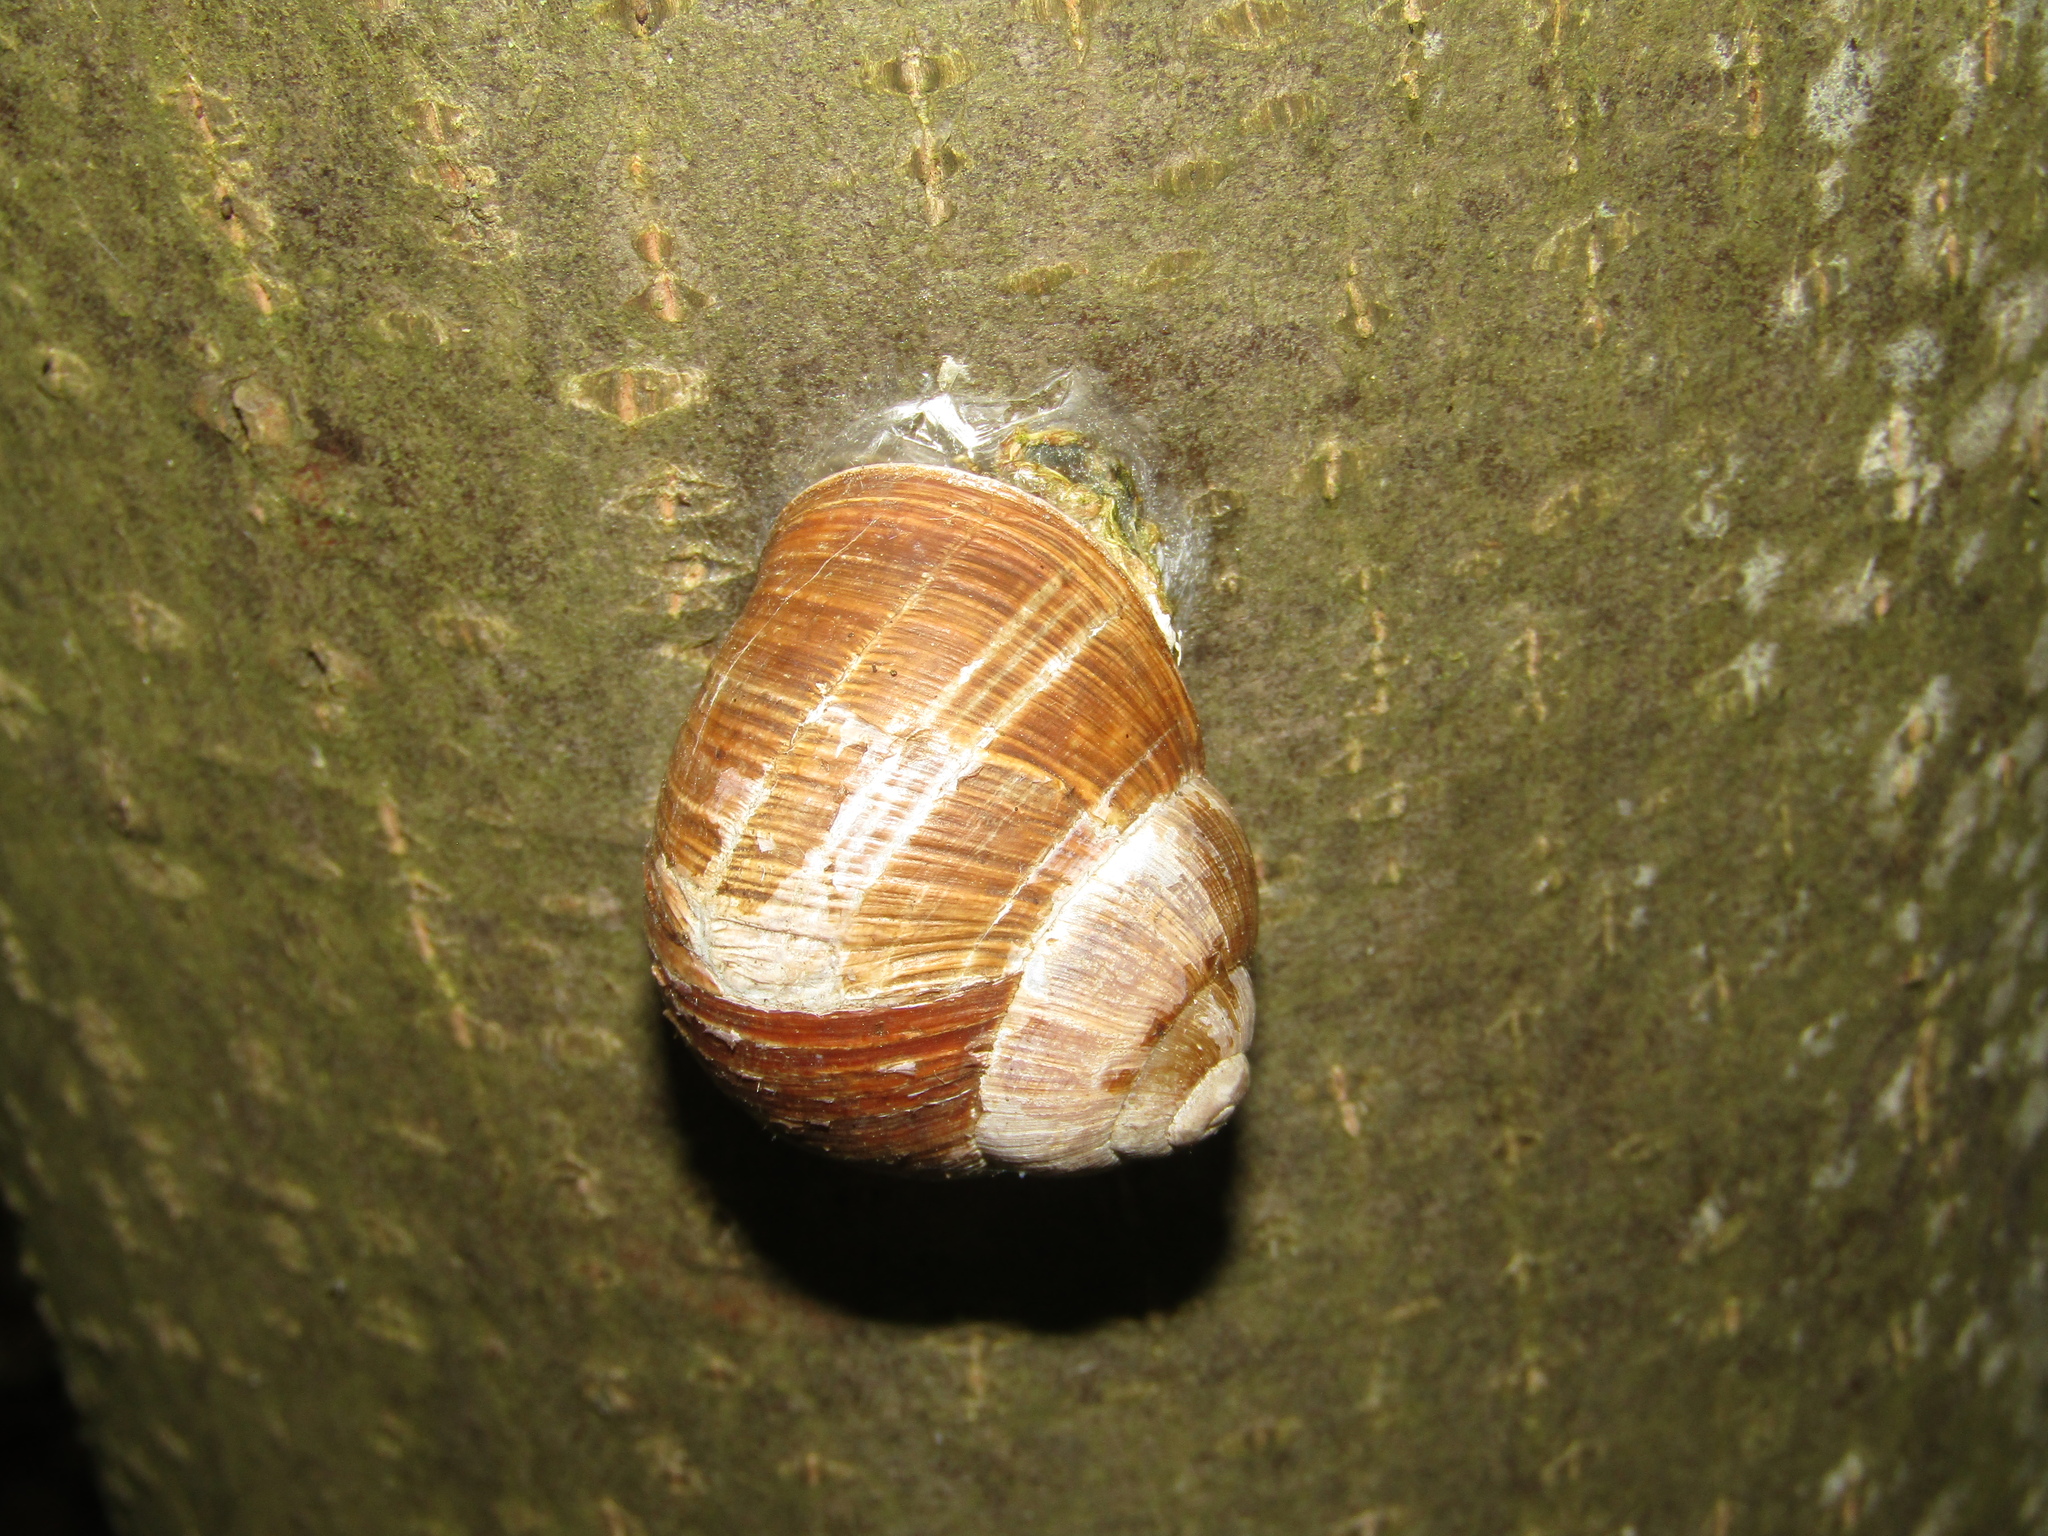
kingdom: Animalia
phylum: Mollusca
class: Gastropoda
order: Stylommatophora
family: Helicidae
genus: Helix
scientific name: Helix pomatia
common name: Roman snail
